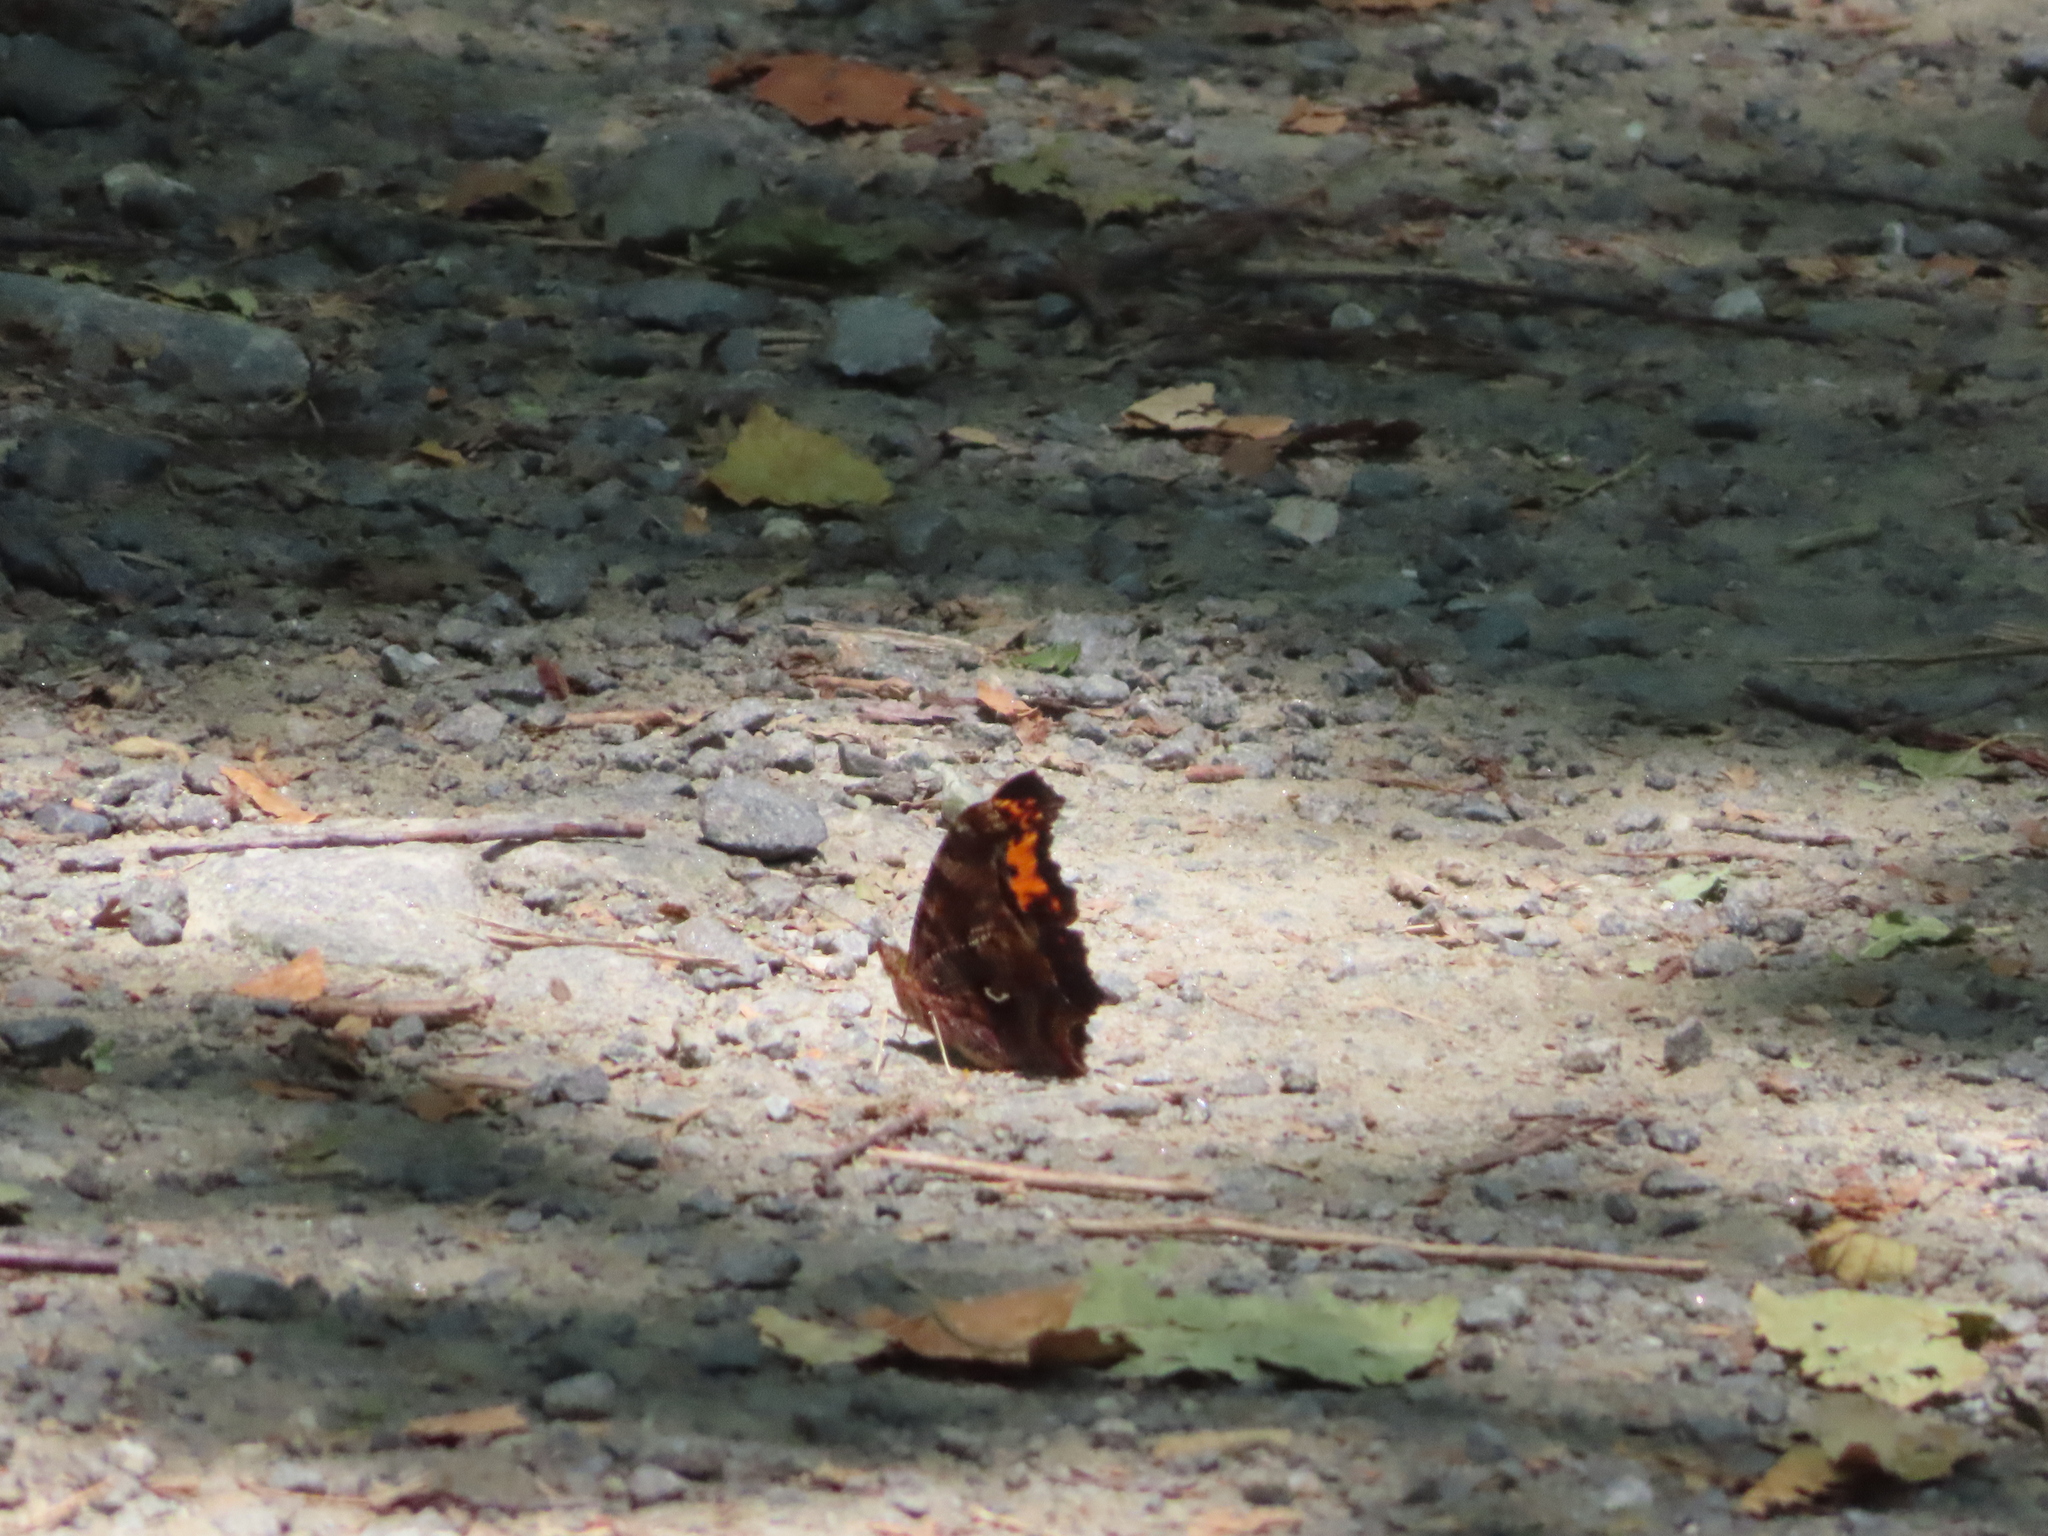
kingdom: Animalia
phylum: Arthropoda
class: Insecta
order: Lepidoptera
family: Nymphalidae
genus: Polygonia
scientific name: Polygonia comma
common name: Eastern comma
